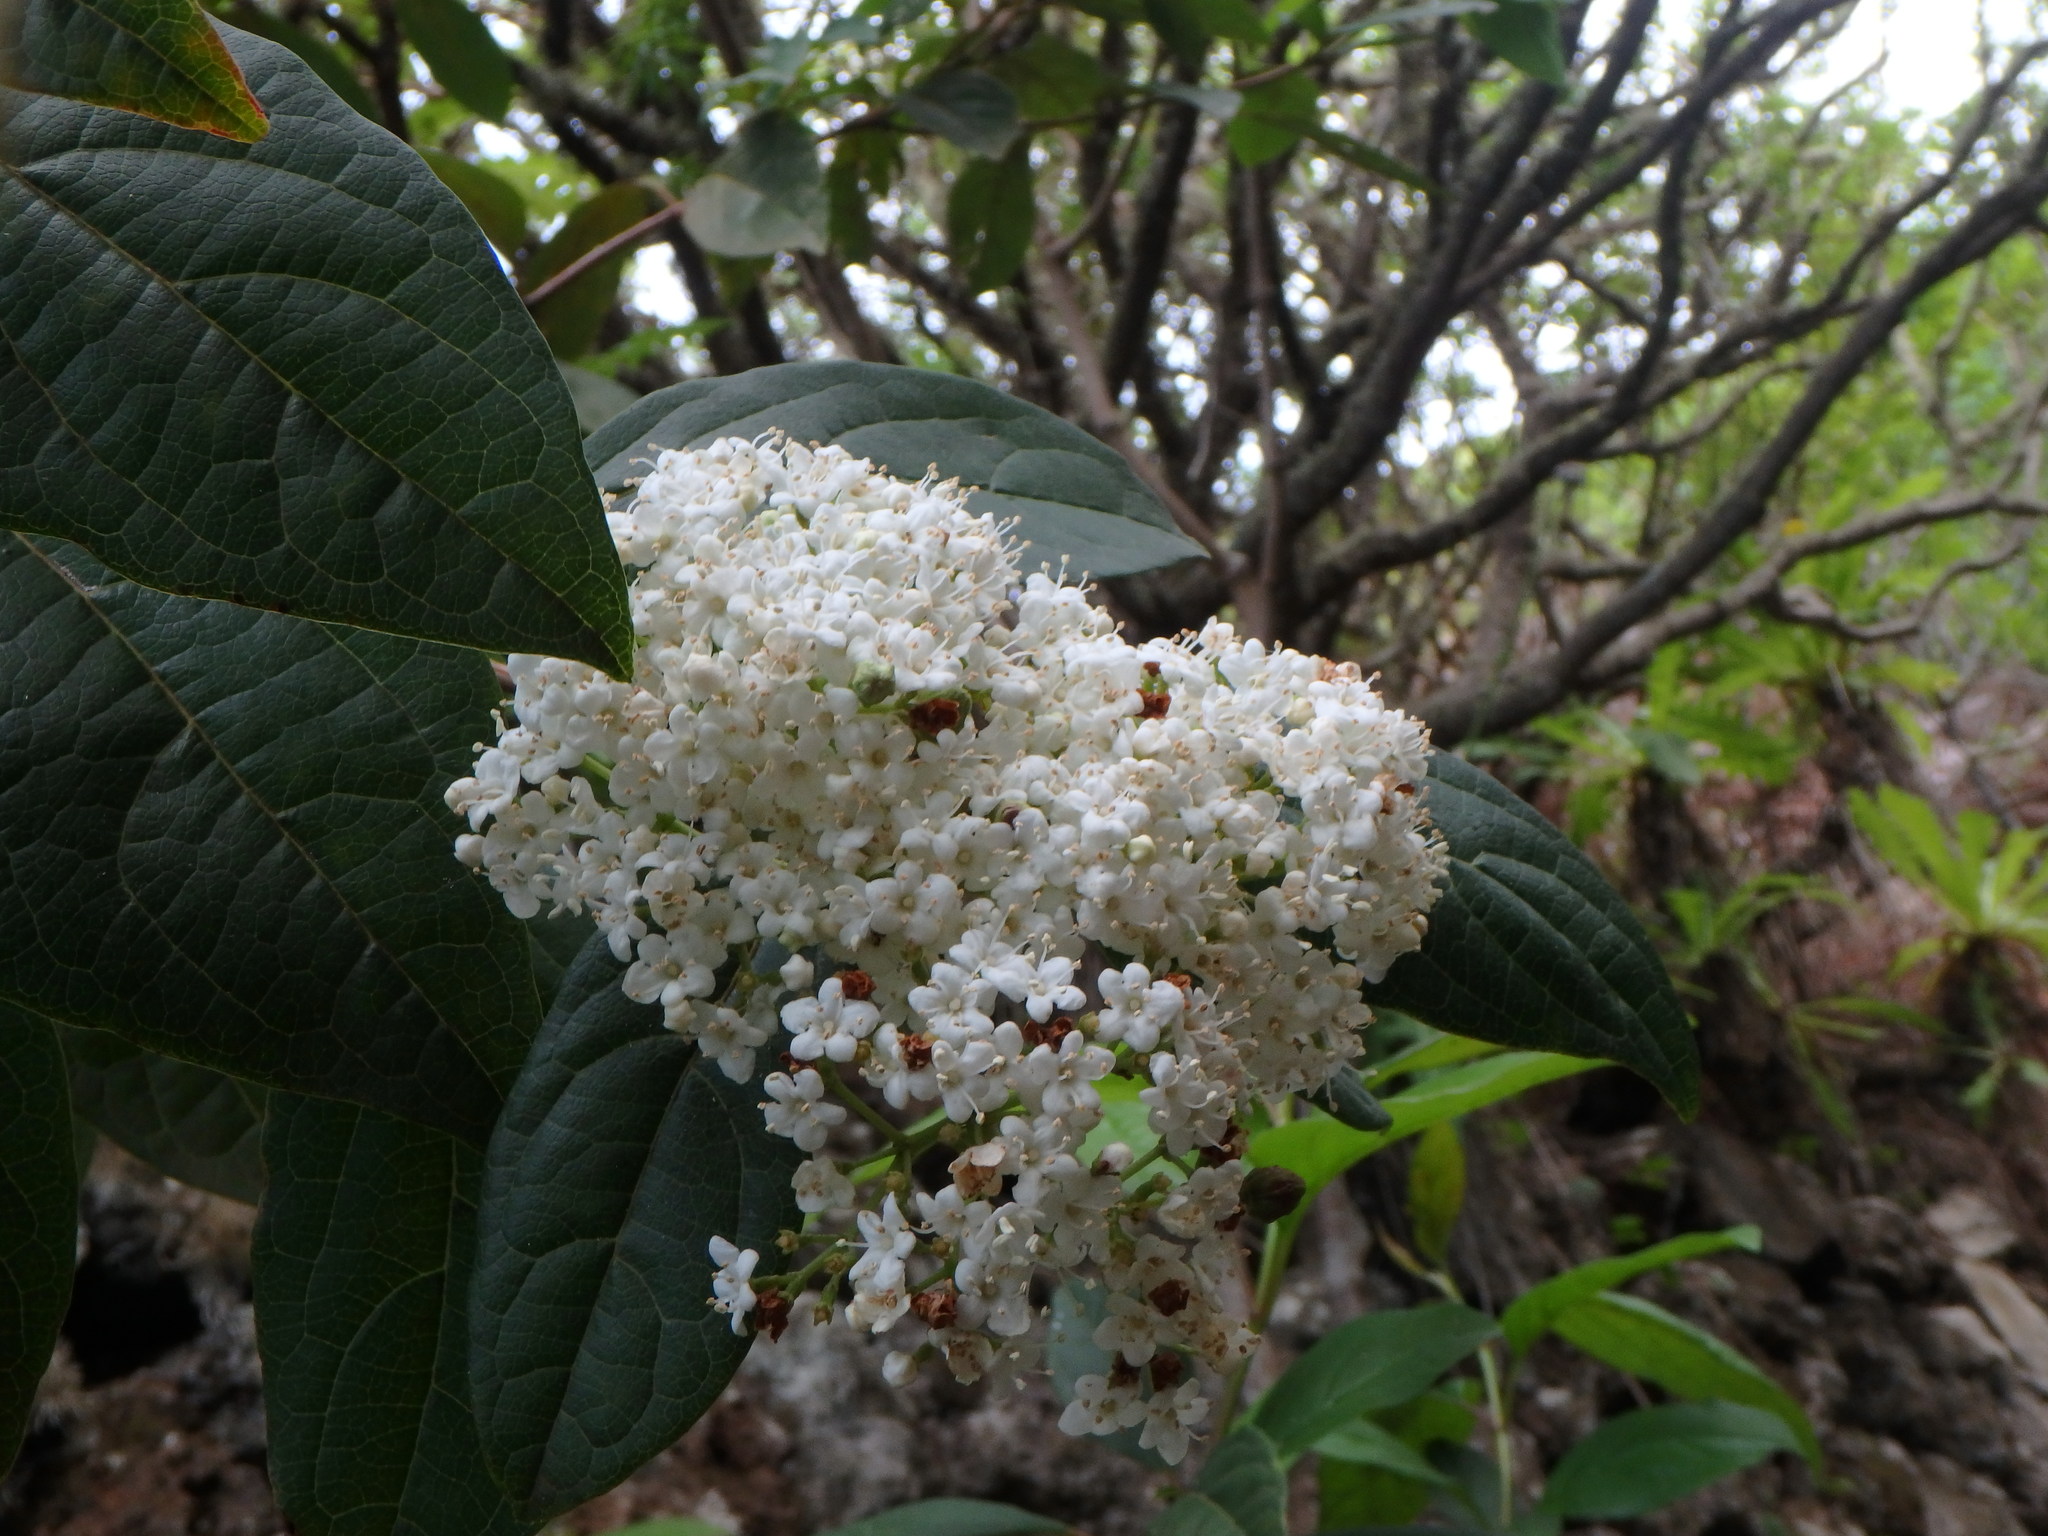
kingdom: Plantae
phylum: Tracheophyta
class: Magnoliopsida
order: Dipsacales
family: Viburnaceae
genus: Viburnum
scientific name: Viburnum rugosum
